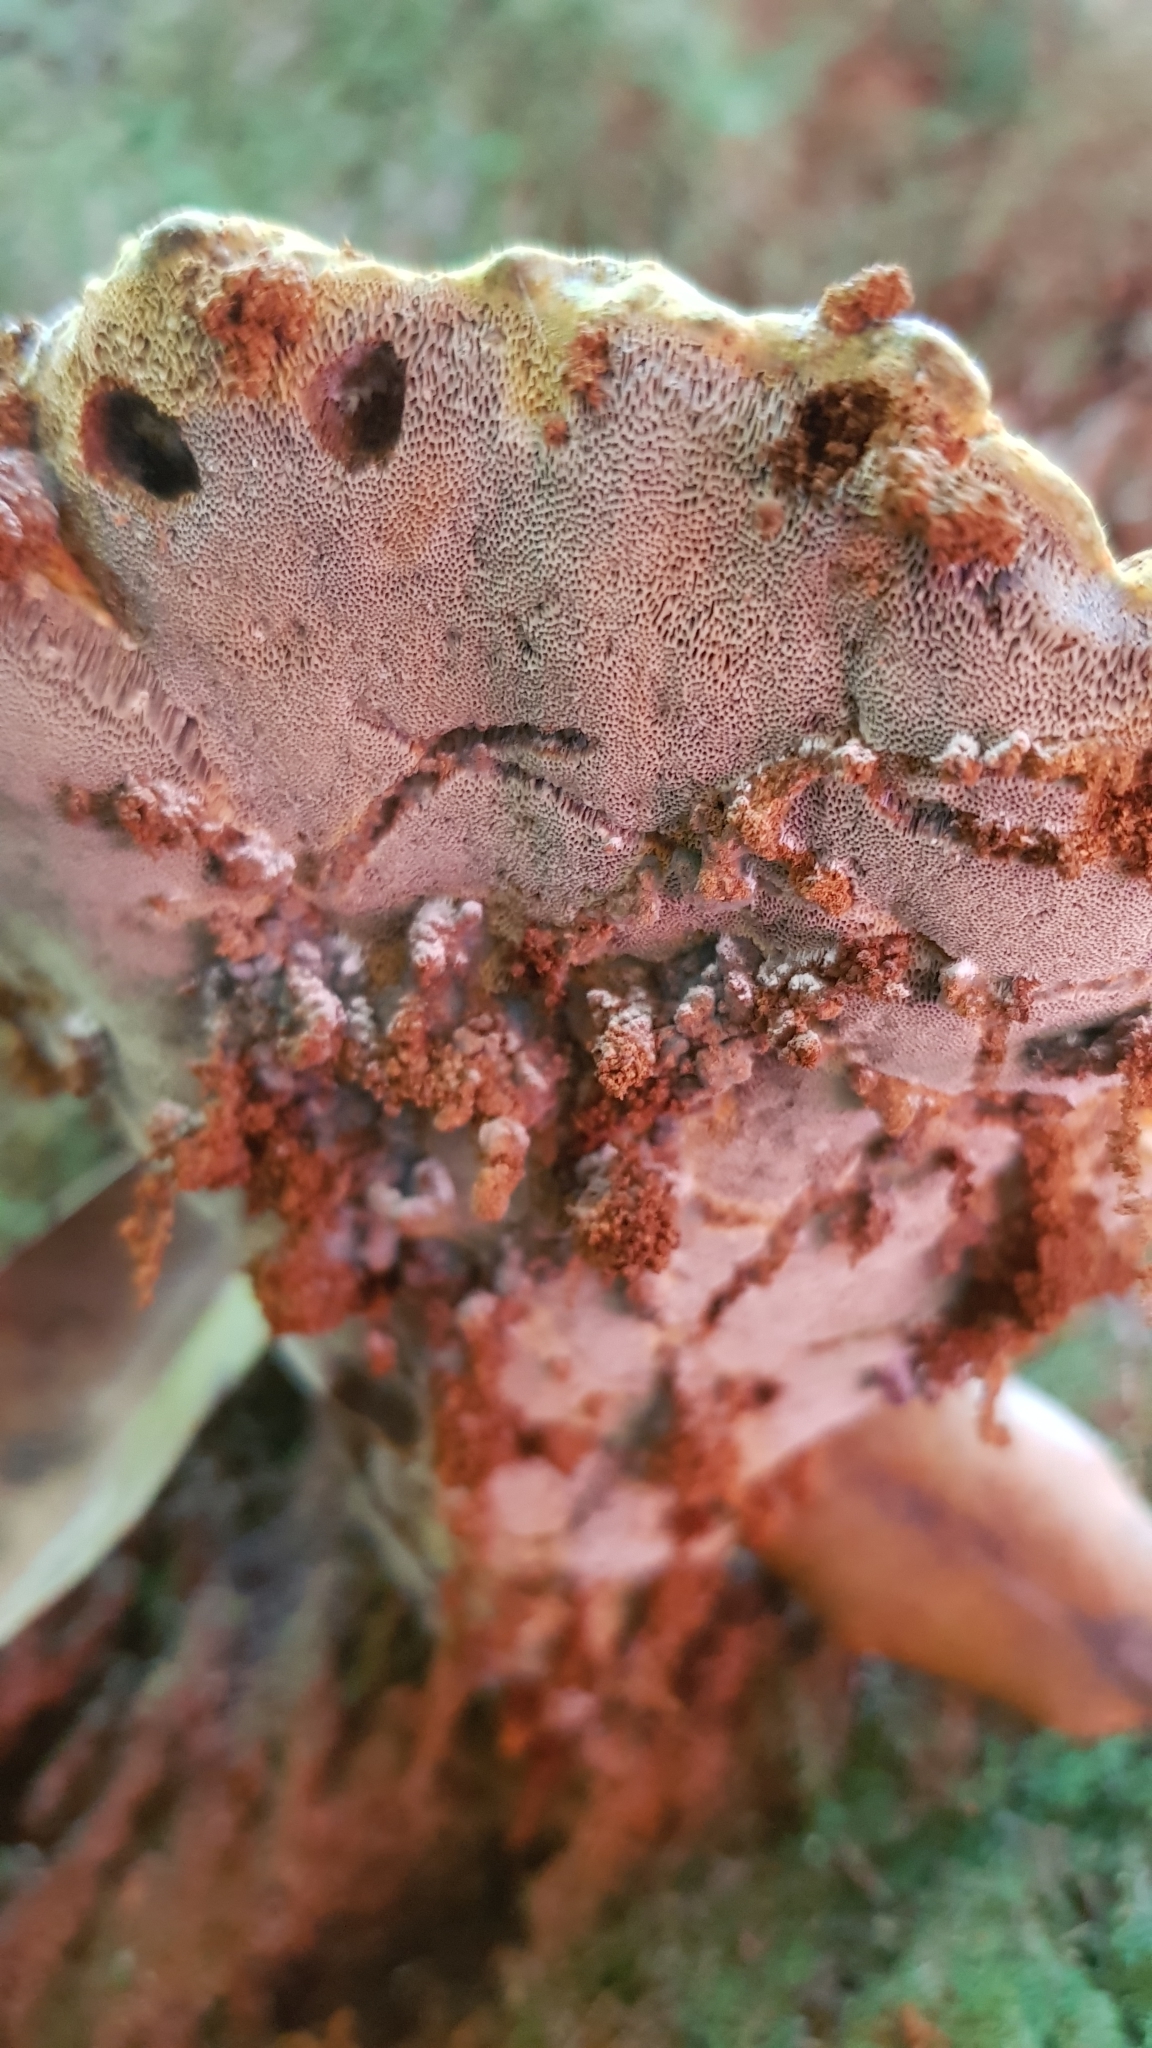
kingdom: Fungi
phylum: Basidiomycota
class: Agaricomycetes
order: Polyporales
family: Fomitopsidaceae
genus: Rhodofomitopsis
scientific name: Rhodofomitopsis lilacinogilva
